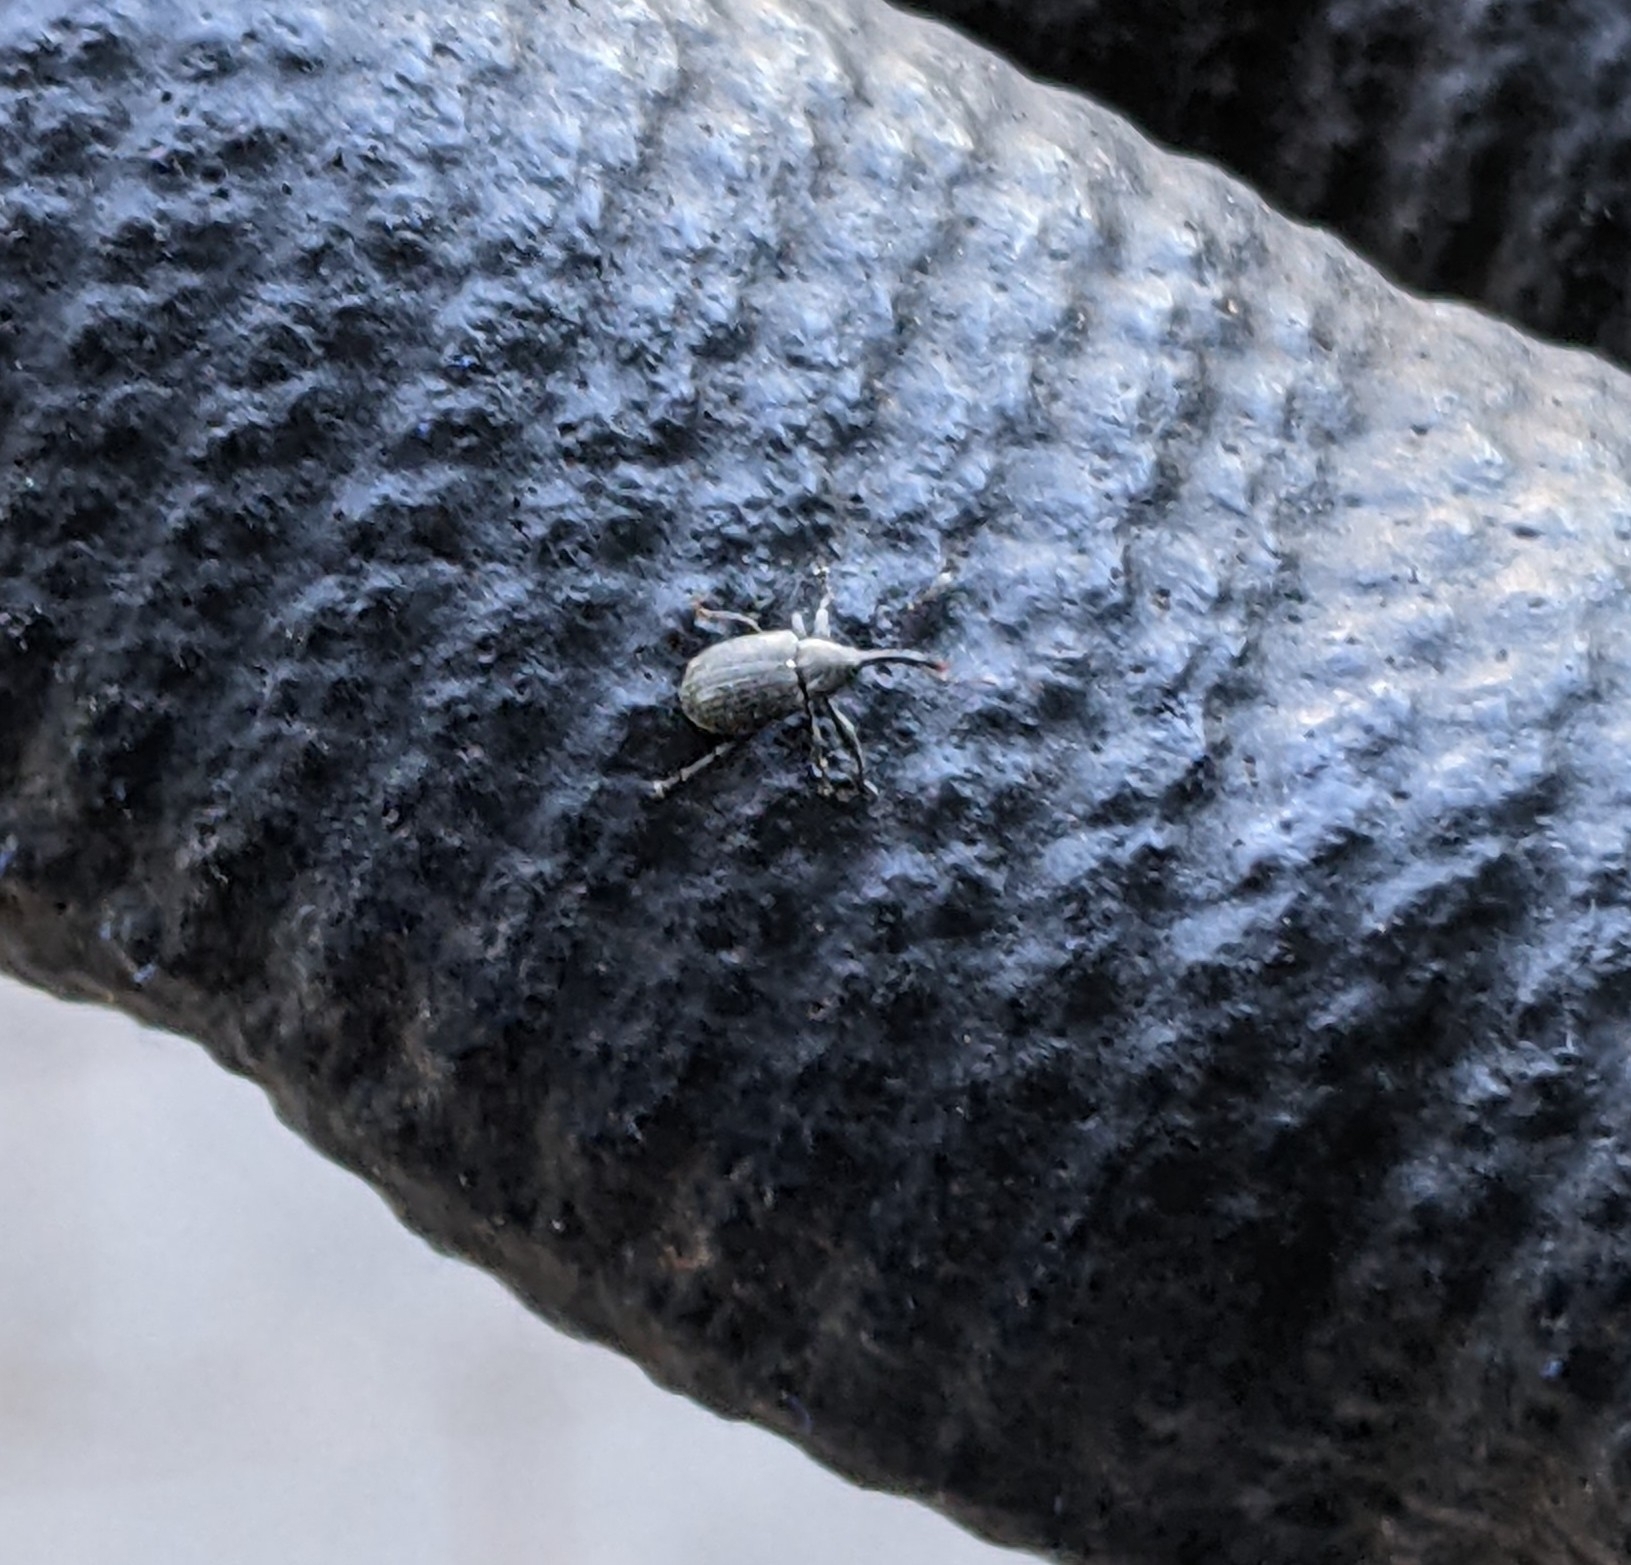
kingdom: Animalia
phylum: Arthropoda
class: Insecta
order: Coleoptera
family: Curculionidae
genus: Anthonomus
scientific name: Anthonomus rubi
